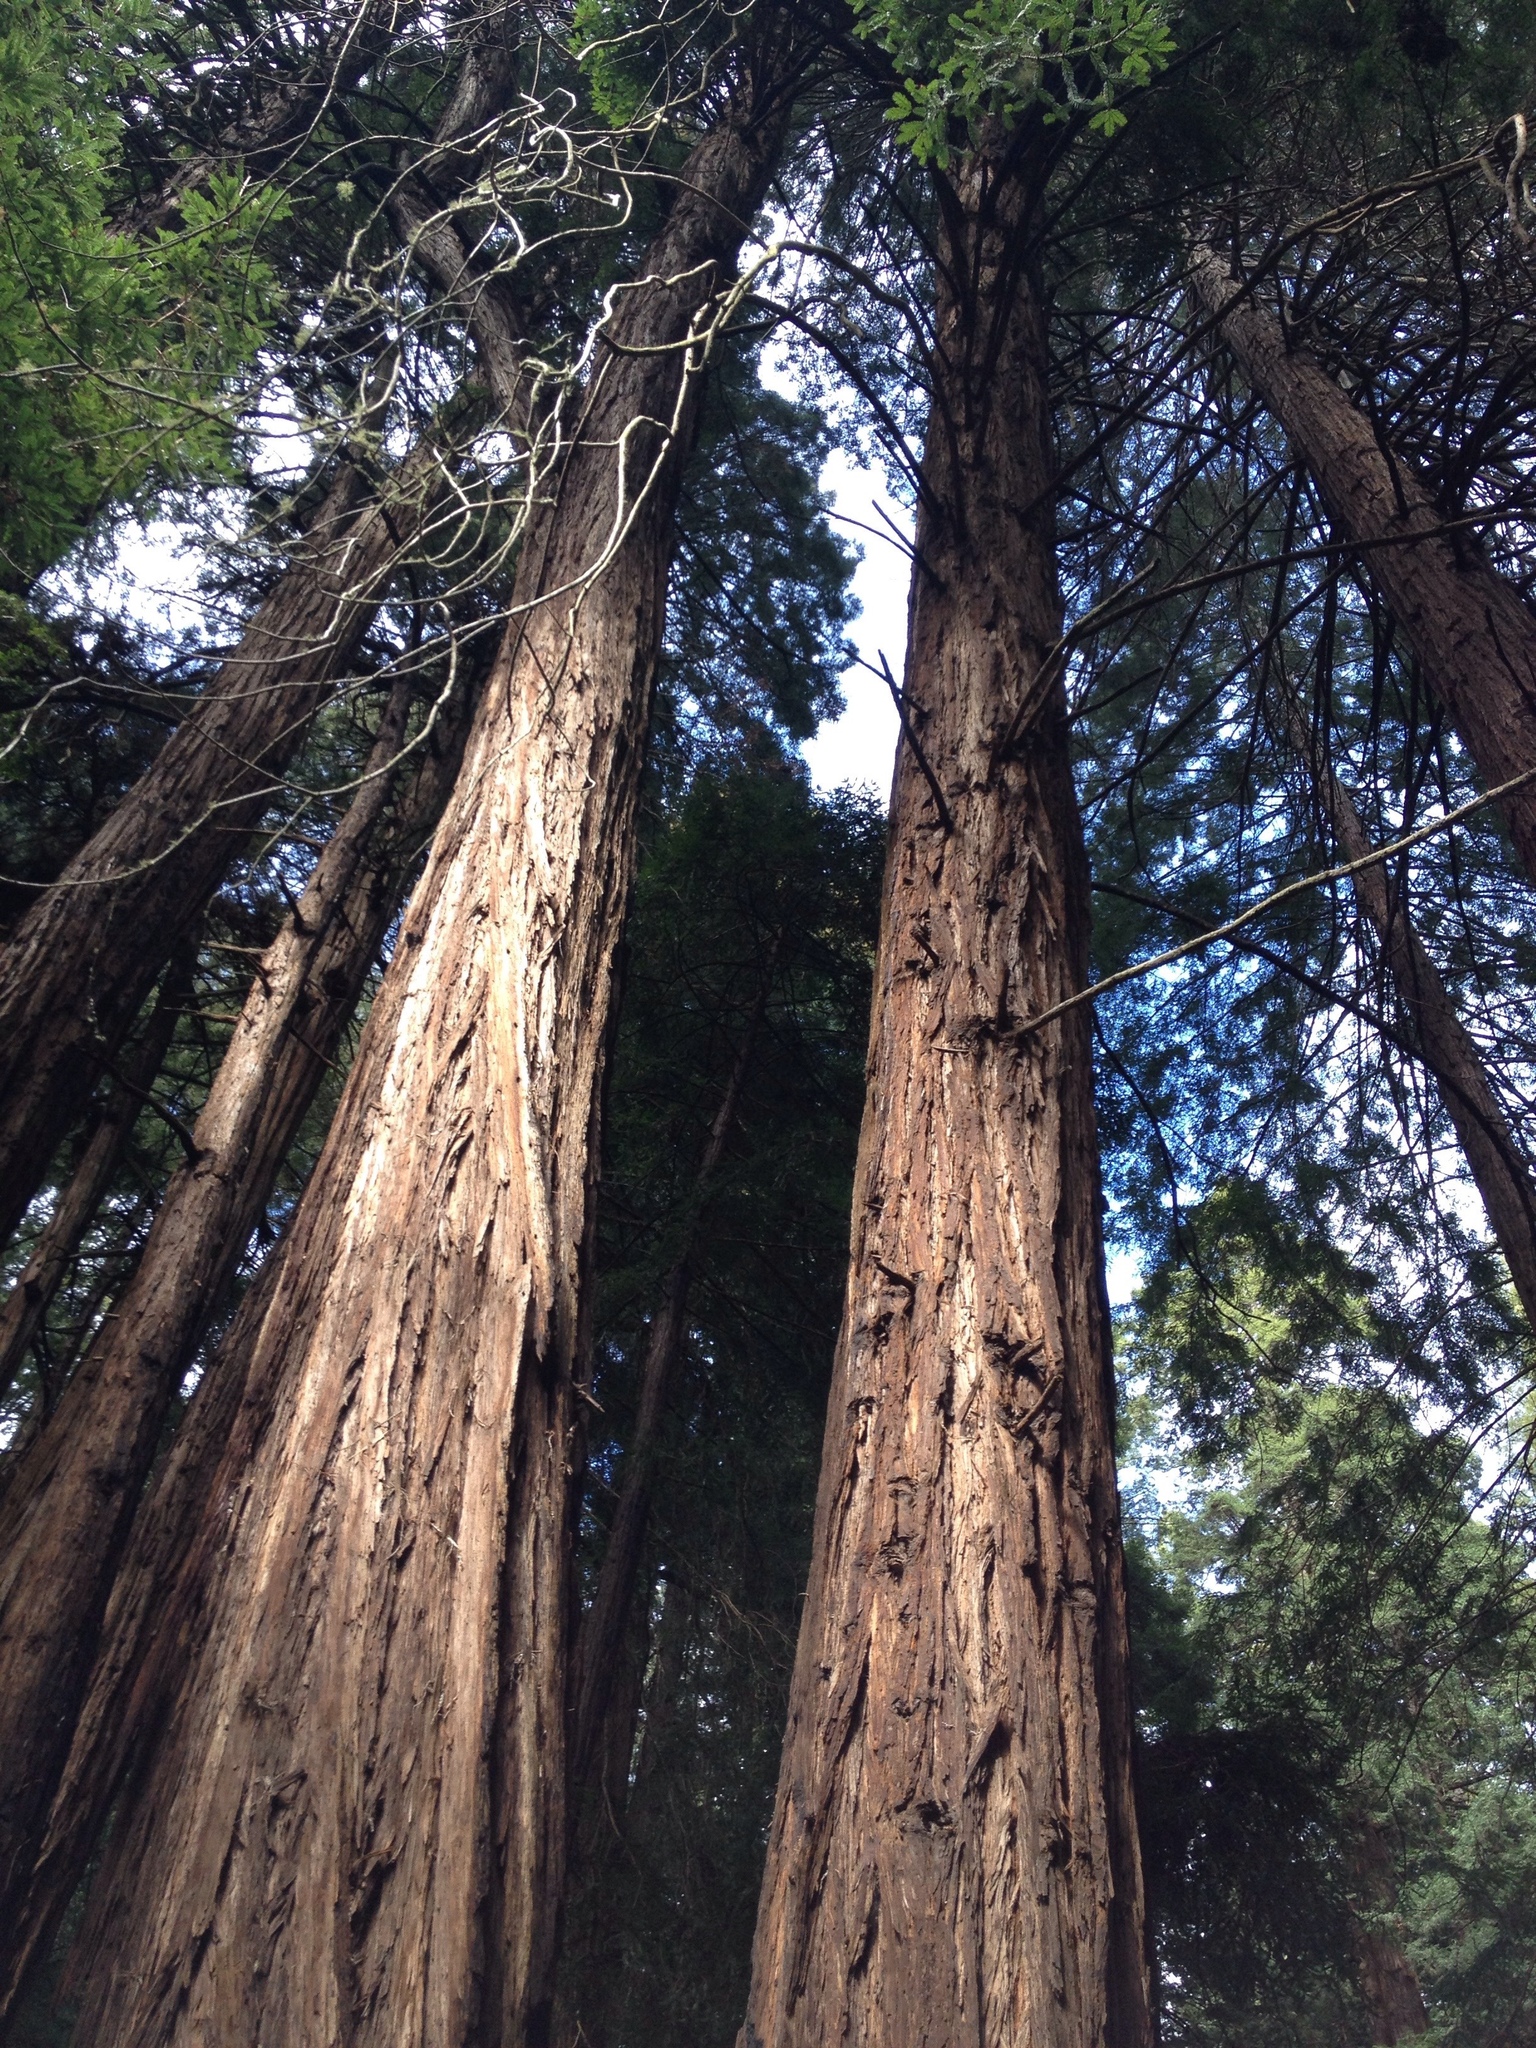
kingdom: Plantae
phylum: Tracheophyta
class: Pinopsida
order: Pinales
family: Cupressaceae
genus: Sequoia
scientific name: Sequoia sempervirens
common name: Coast redwood
